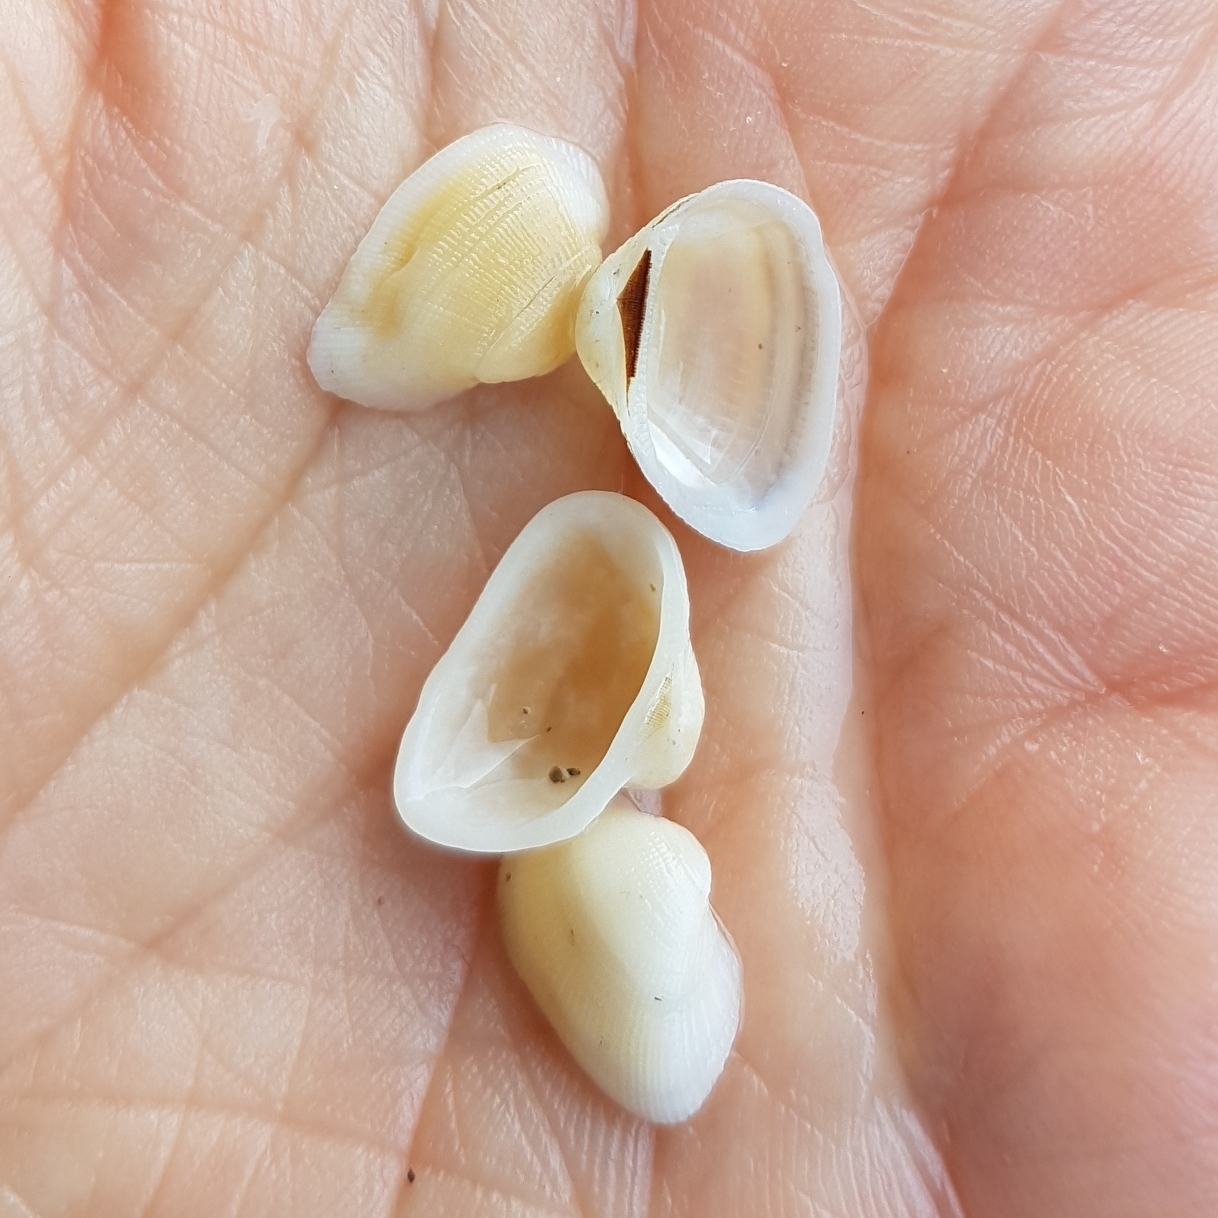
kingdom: Animalia
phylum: Mollusca
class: Bivalvia
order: Arcida
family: Noetiidae
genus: Striarca
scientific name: Striarca lactea
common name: Milky-white ark
